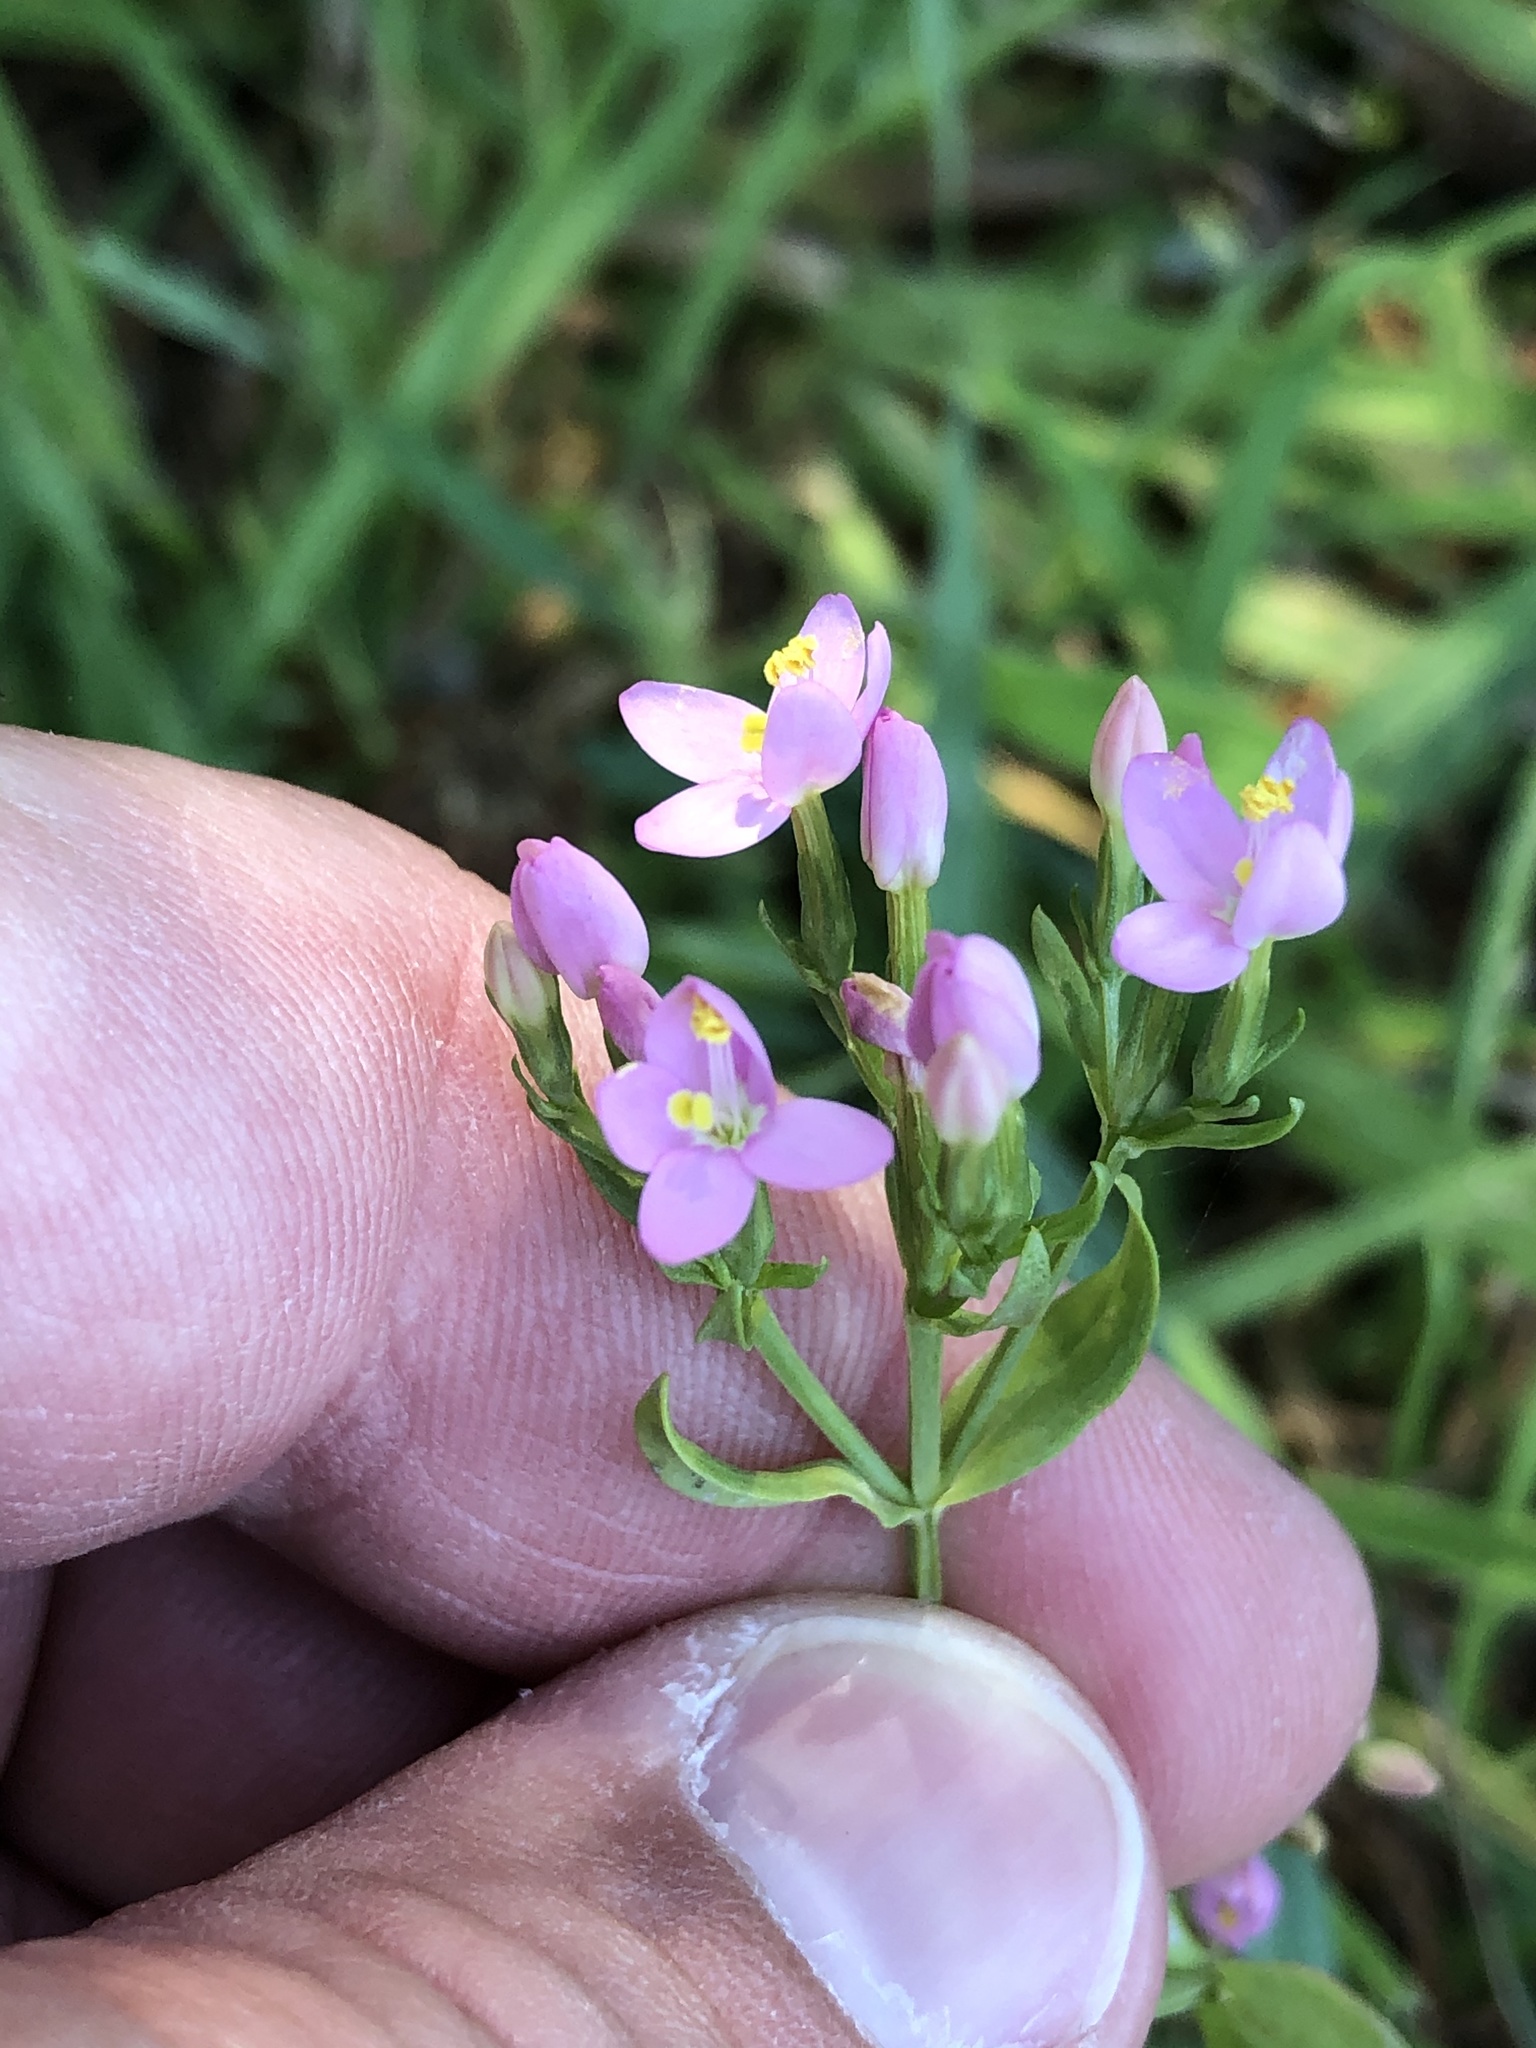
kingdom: Plantae
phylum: Tracheophyta
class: Magnoliopsida
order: Gentianales
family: Gentianaceae
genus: Centaurium
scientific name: Centaurium erythraea
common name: Common centaury
